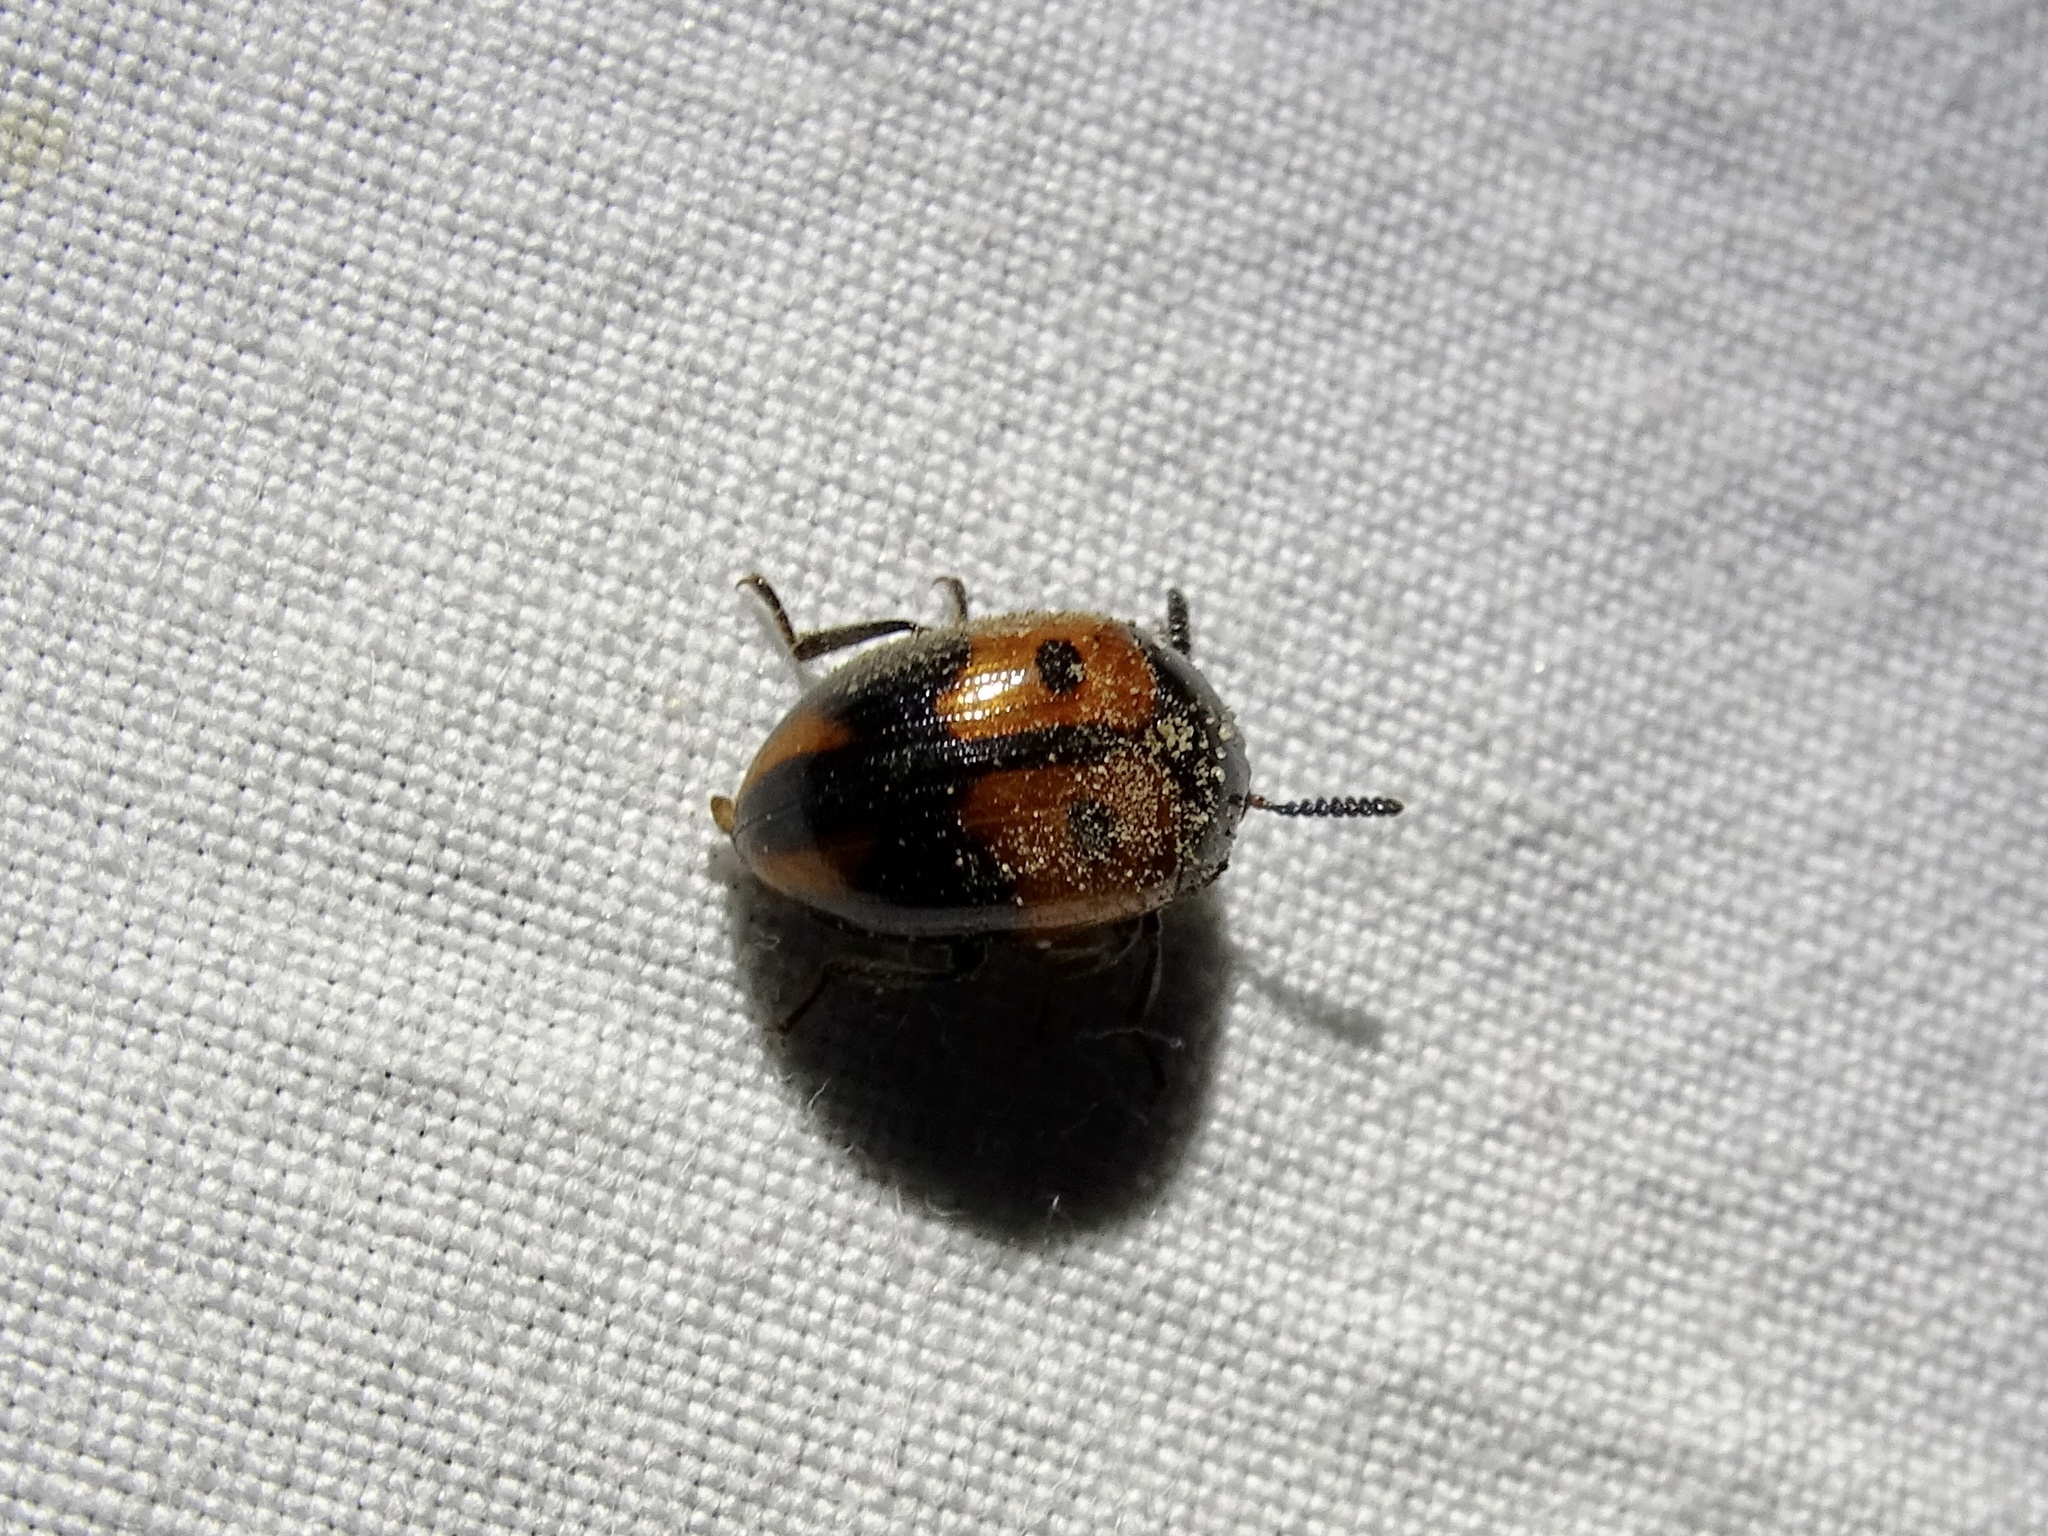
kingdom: Animalia
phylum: Arthropoda
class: Insecta
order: Coleoptera
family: Tenebrionidae
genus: Diaperis
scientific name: Diaperis maculata
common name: Darkling beetle
